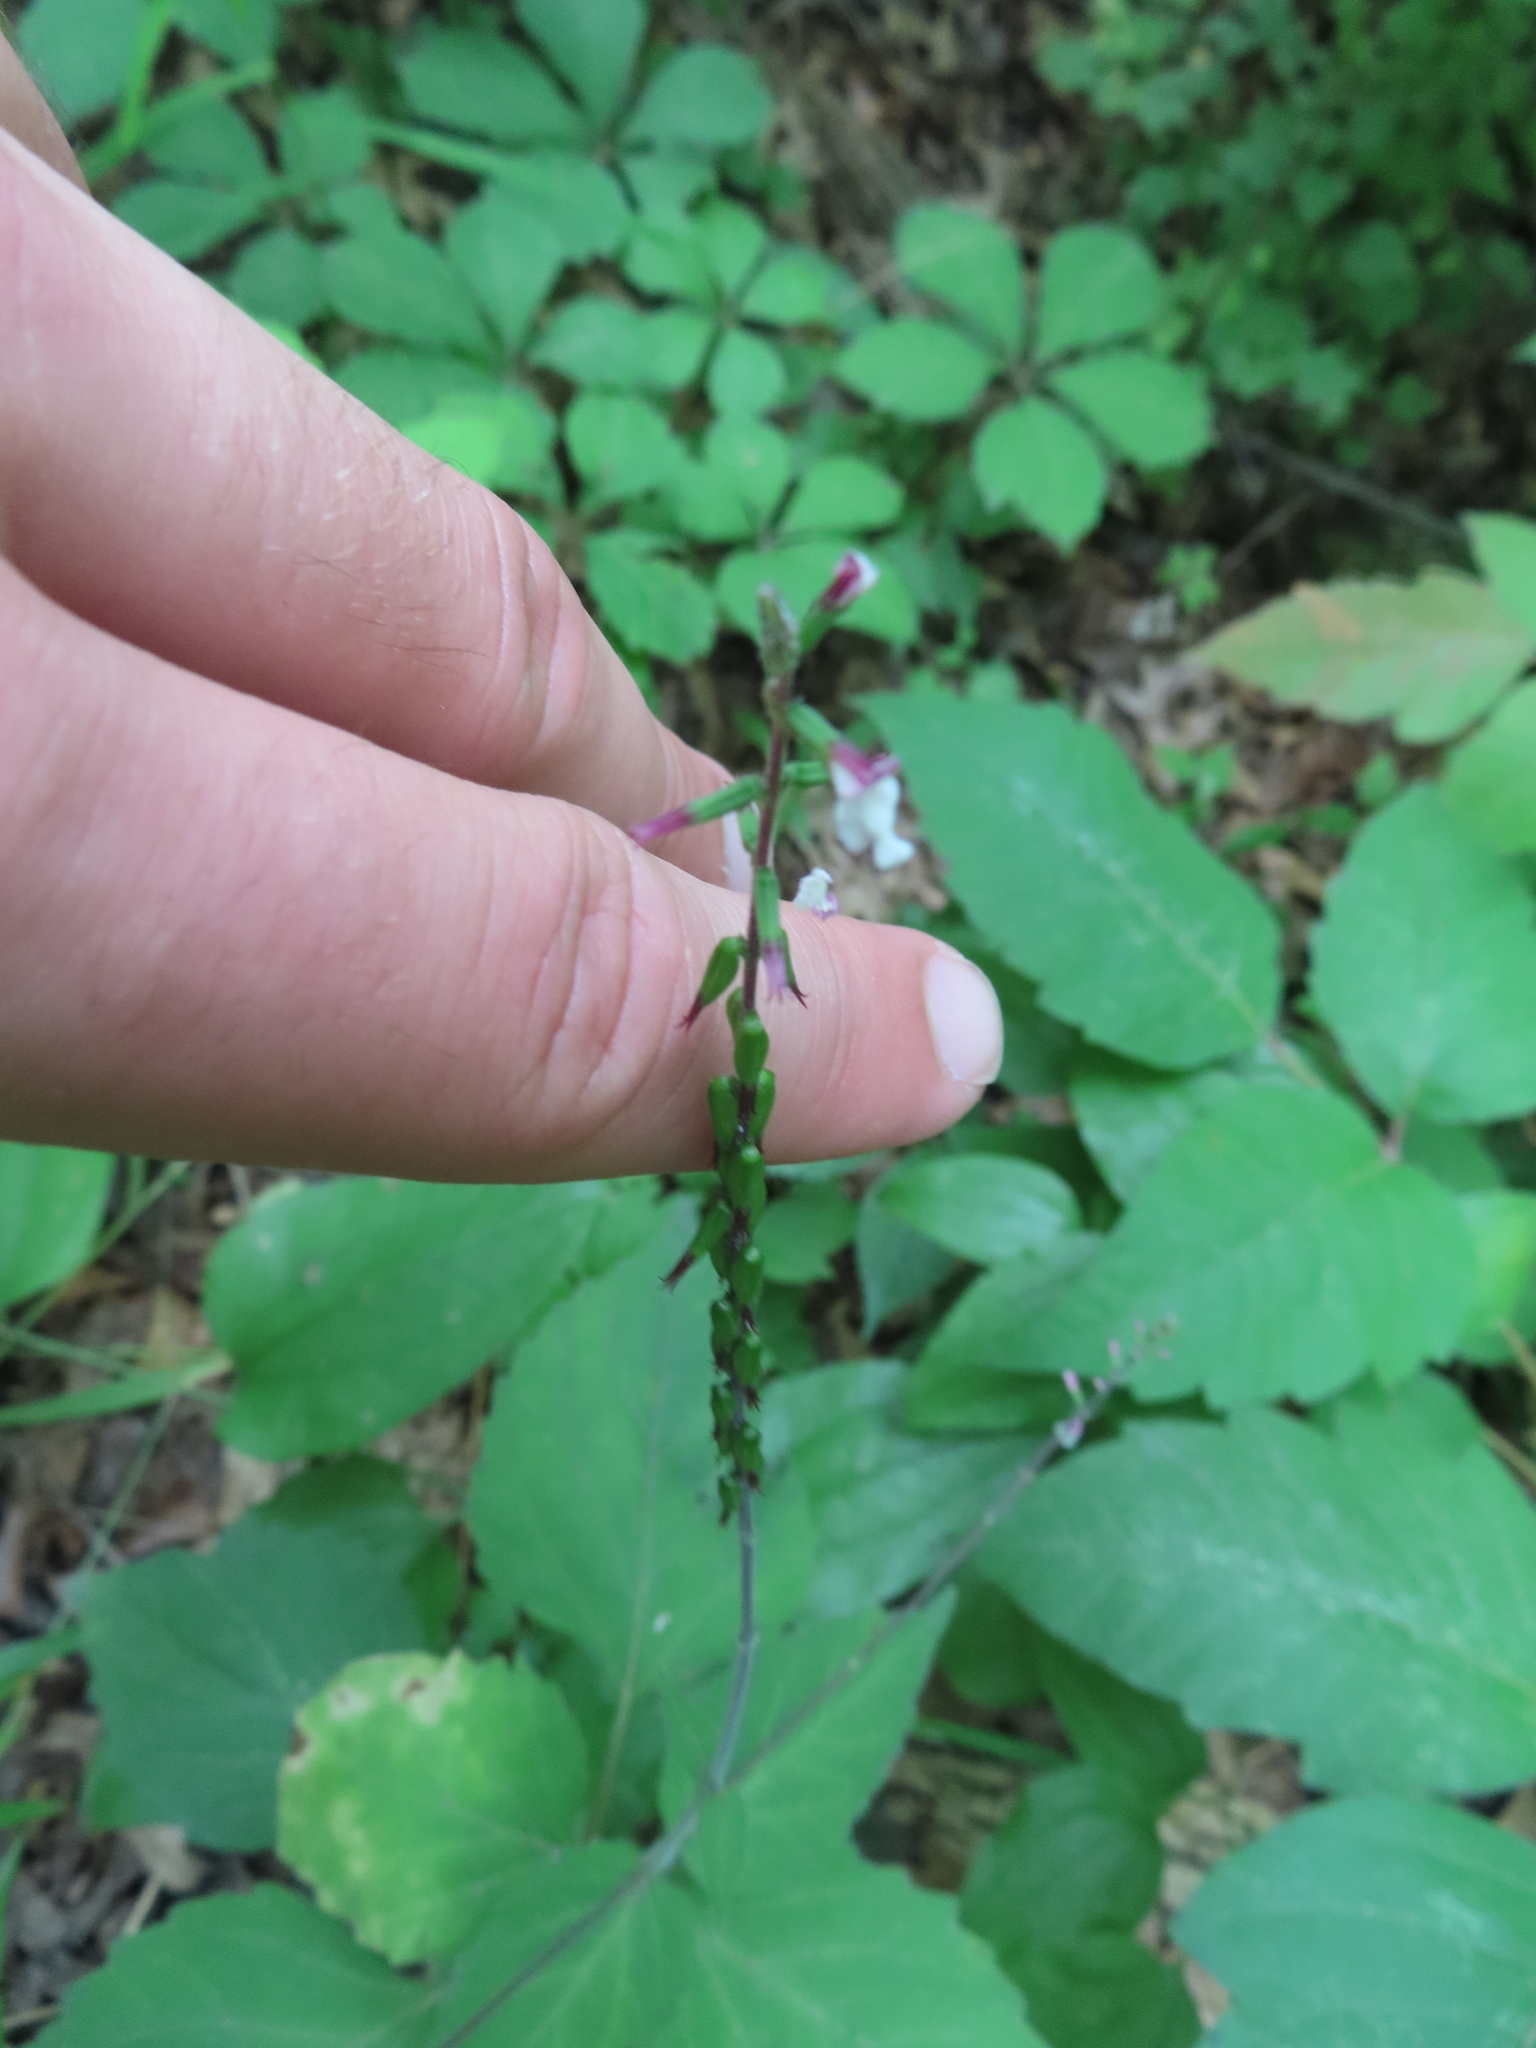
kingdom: Plantae
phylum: Tracheophyta
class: Magnoliopsida
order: Lamiales
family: Phrymaceae
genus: Phryma
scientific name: Phryma leptostachya
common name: American lopseed
